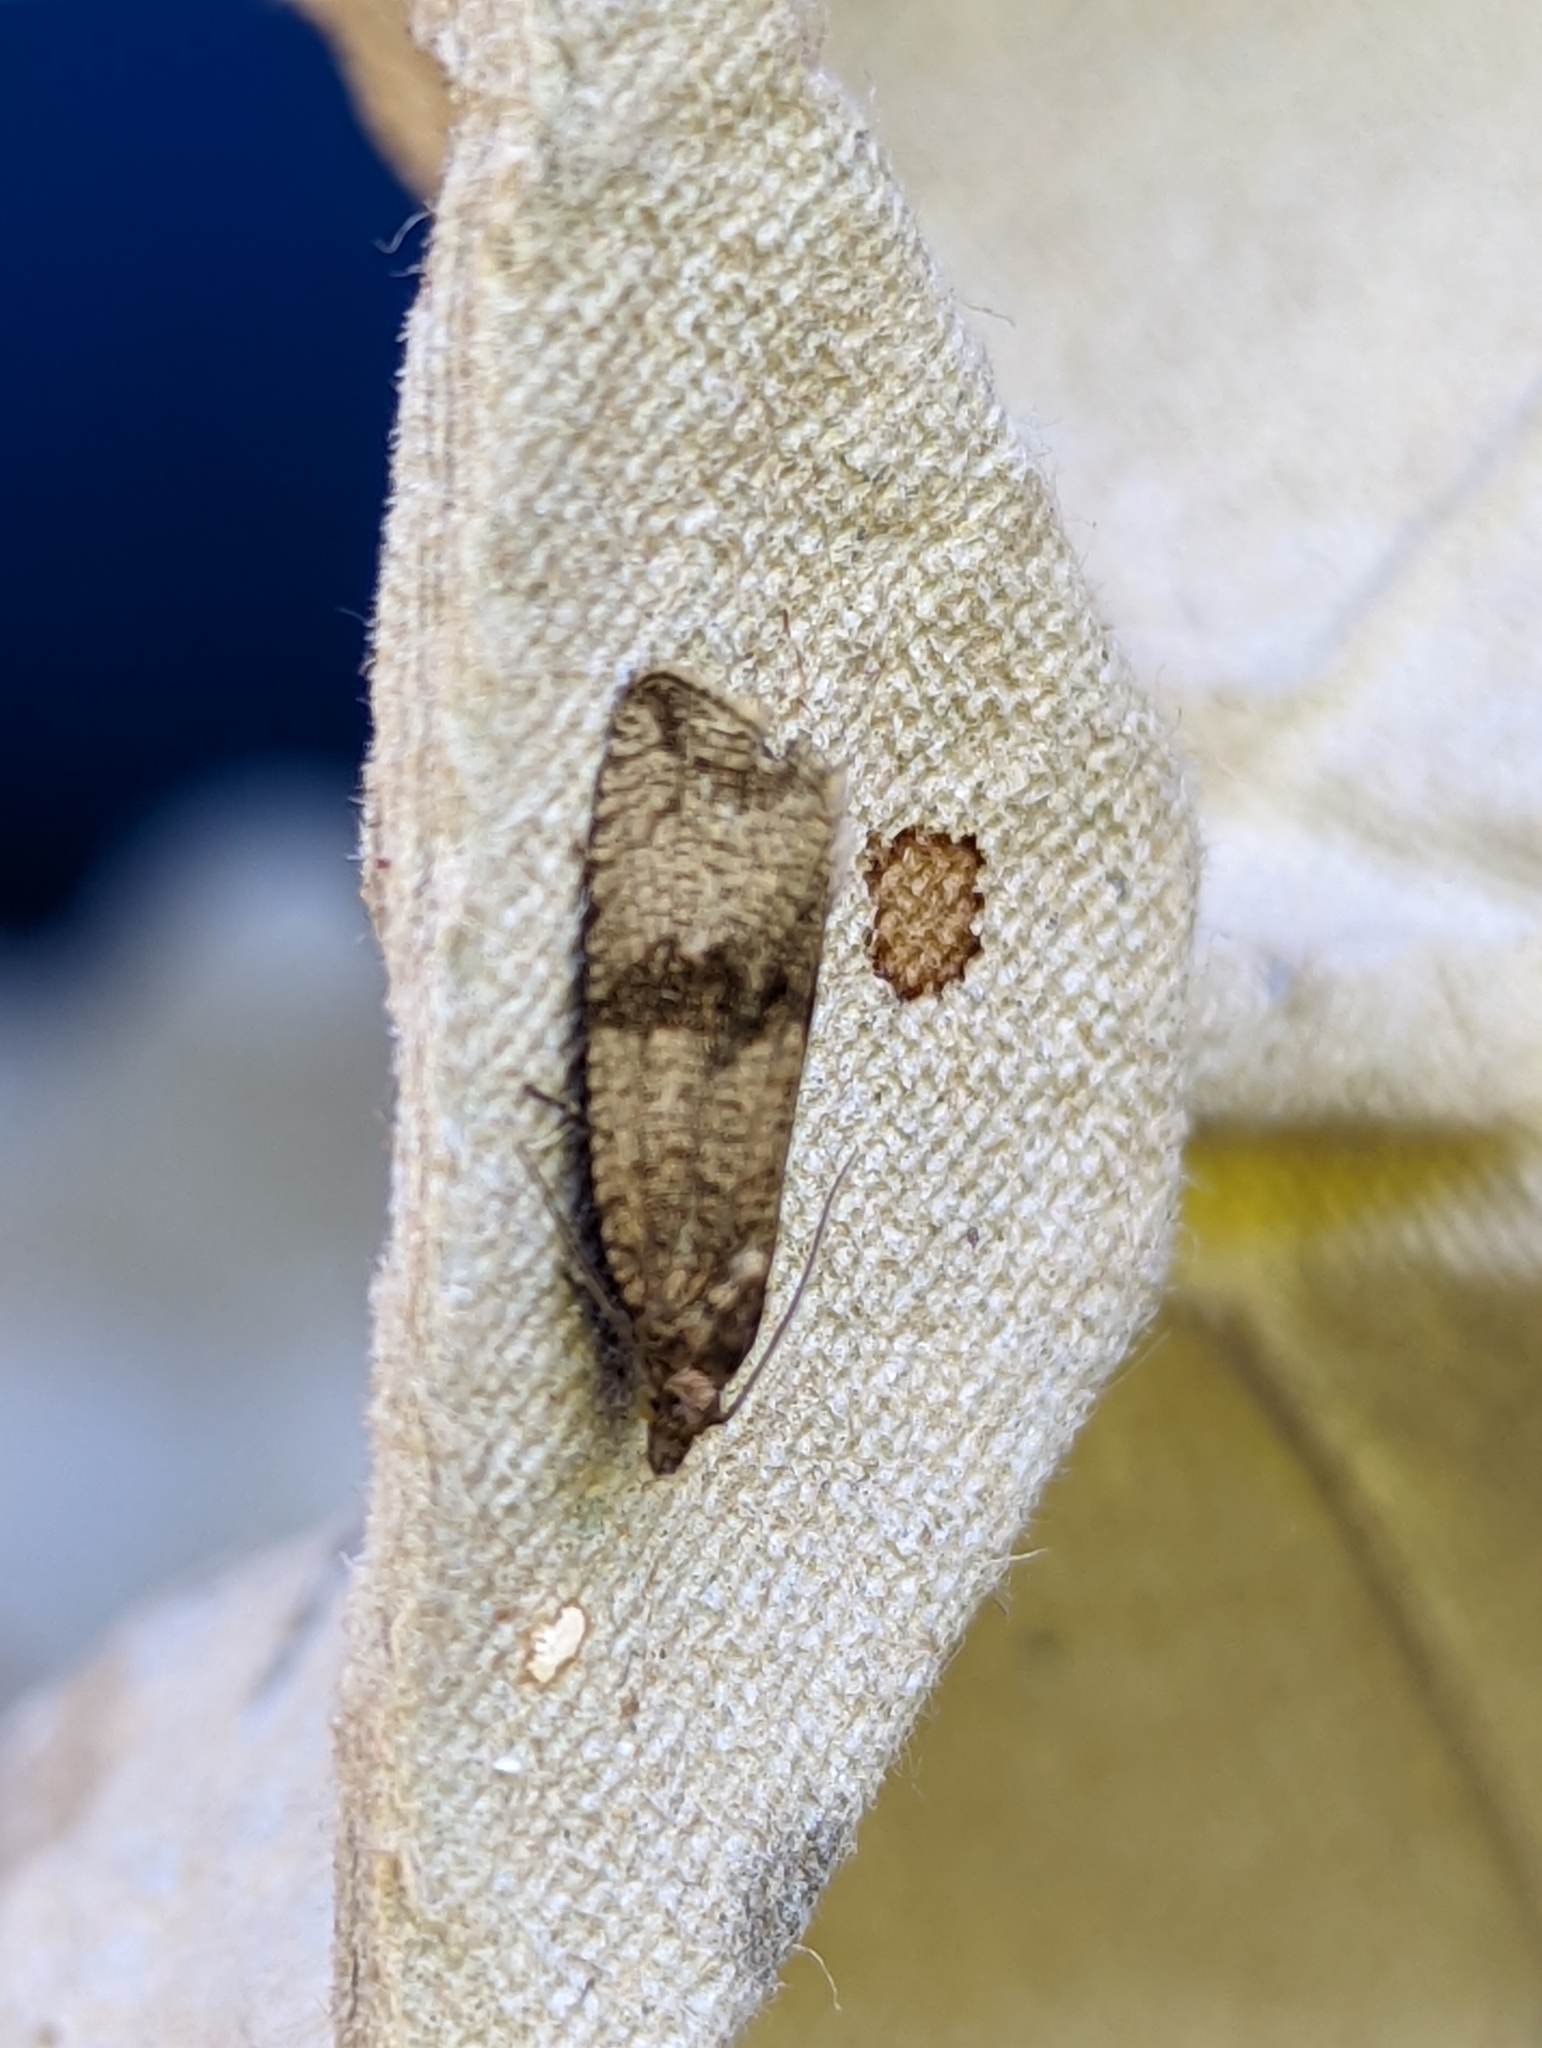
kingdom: Animalia
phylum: Arthropoda
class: Insecta
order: Lepidoptera
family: Tortricidae
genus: Celypha
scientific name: Celypha striana
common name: Barred marble
